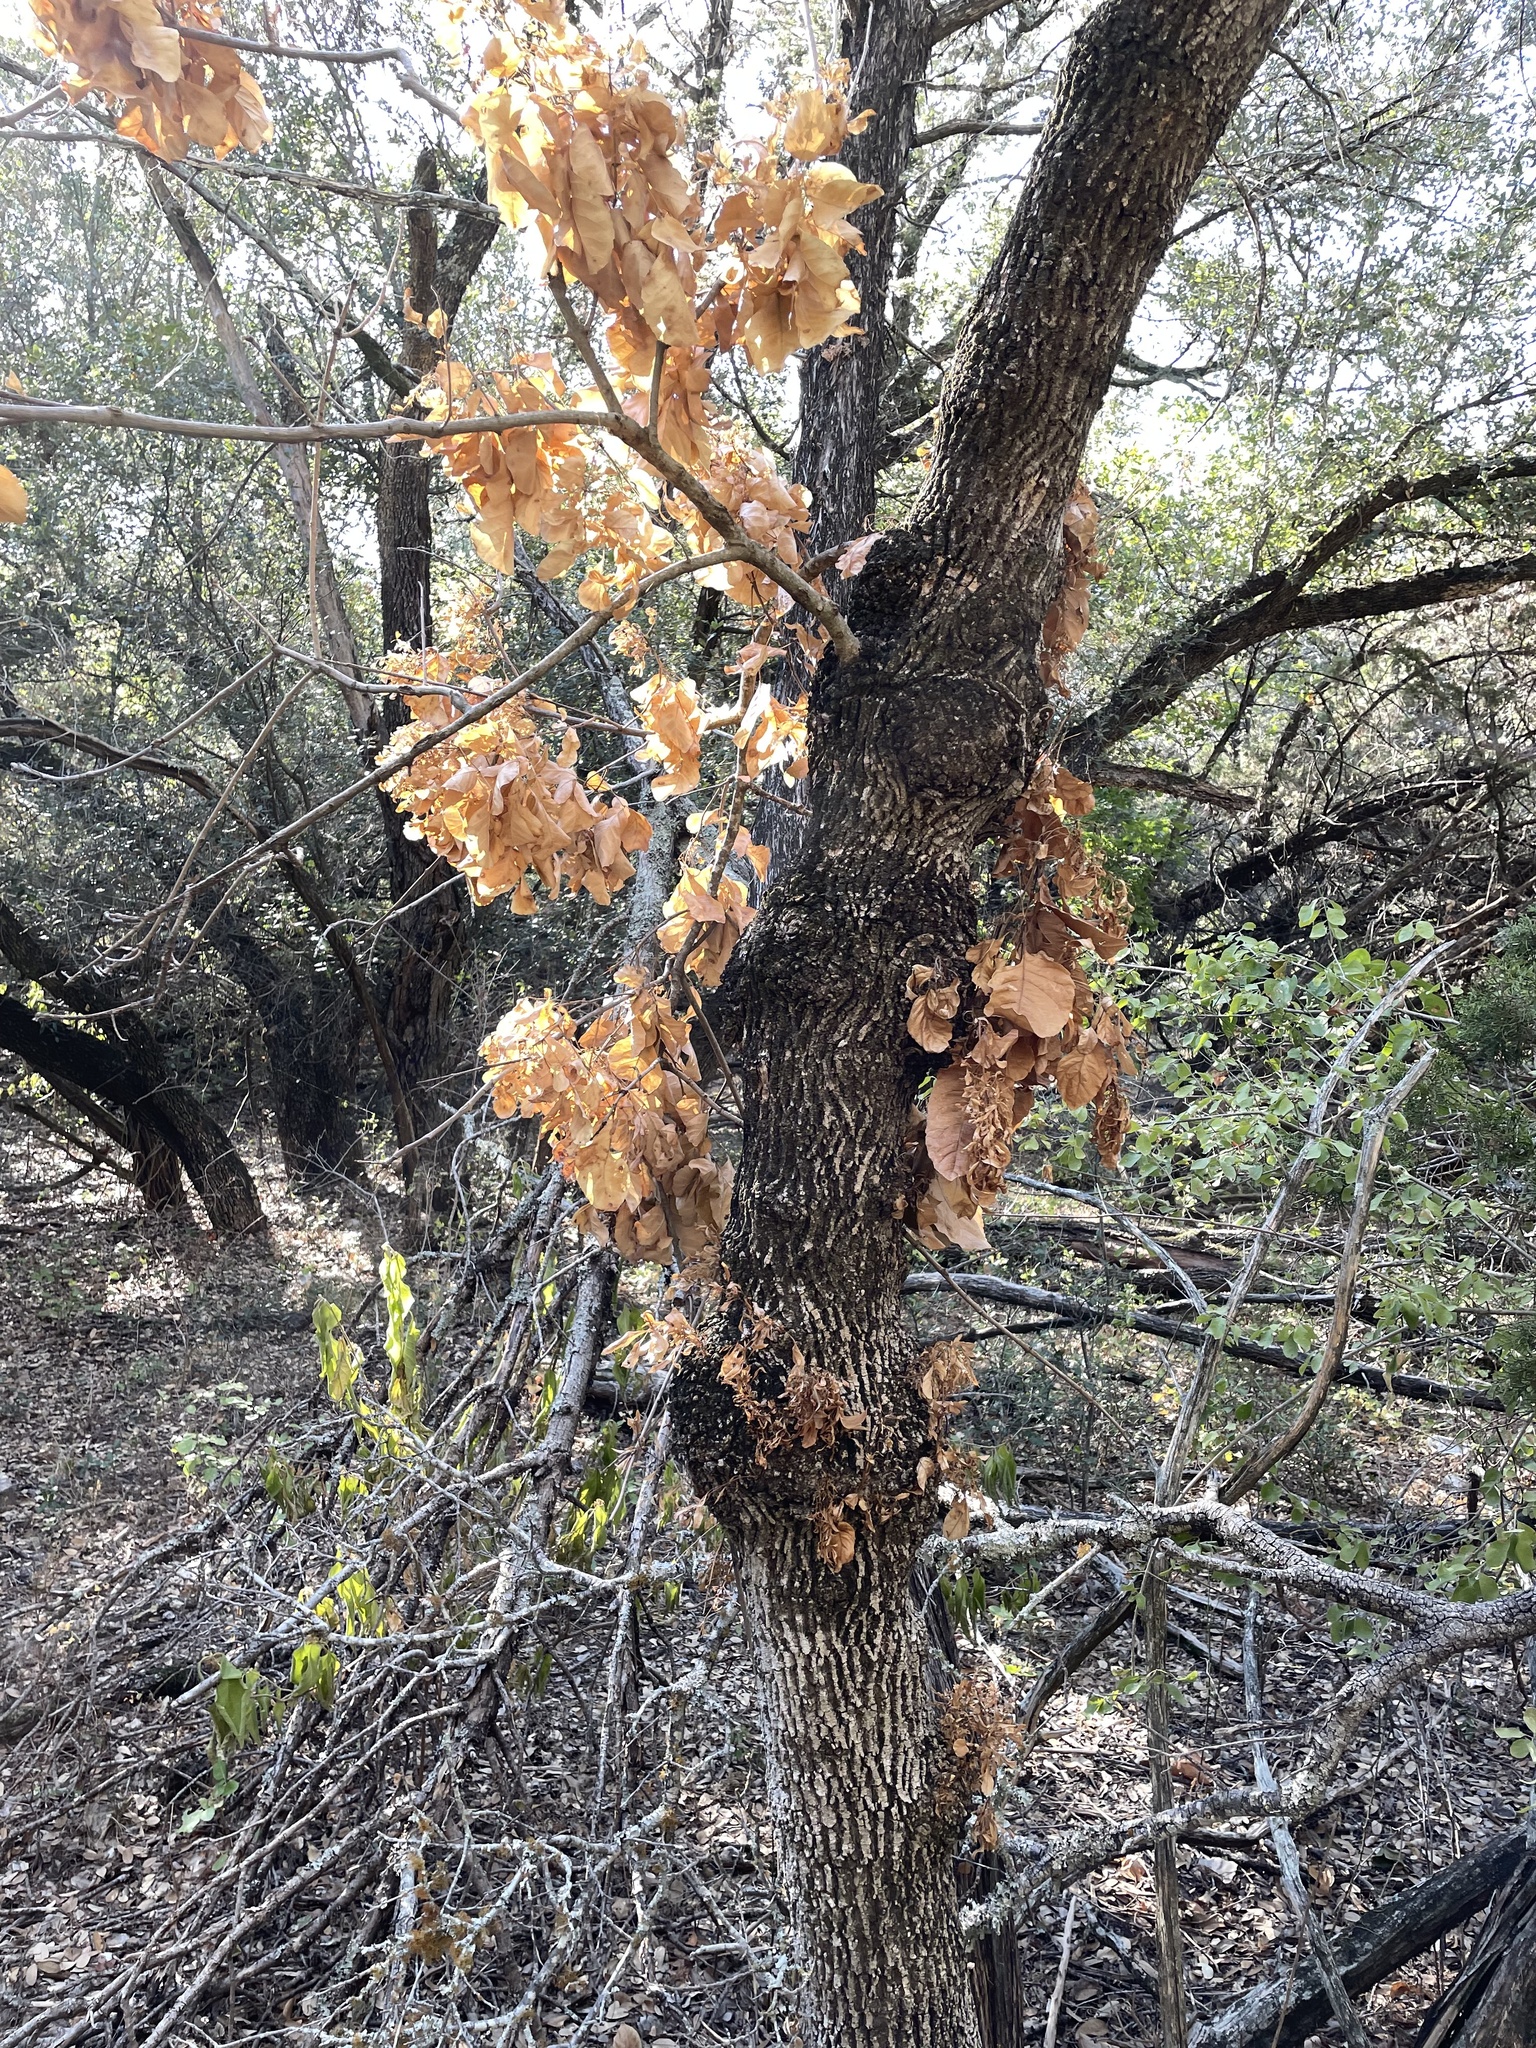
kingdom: Plantae
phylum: Tracheophyta
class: Magnoliopsida
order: Lamiales
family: Oleaceae
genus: Fraxinus
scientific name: Fraxinus albicans
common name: Texas ash
